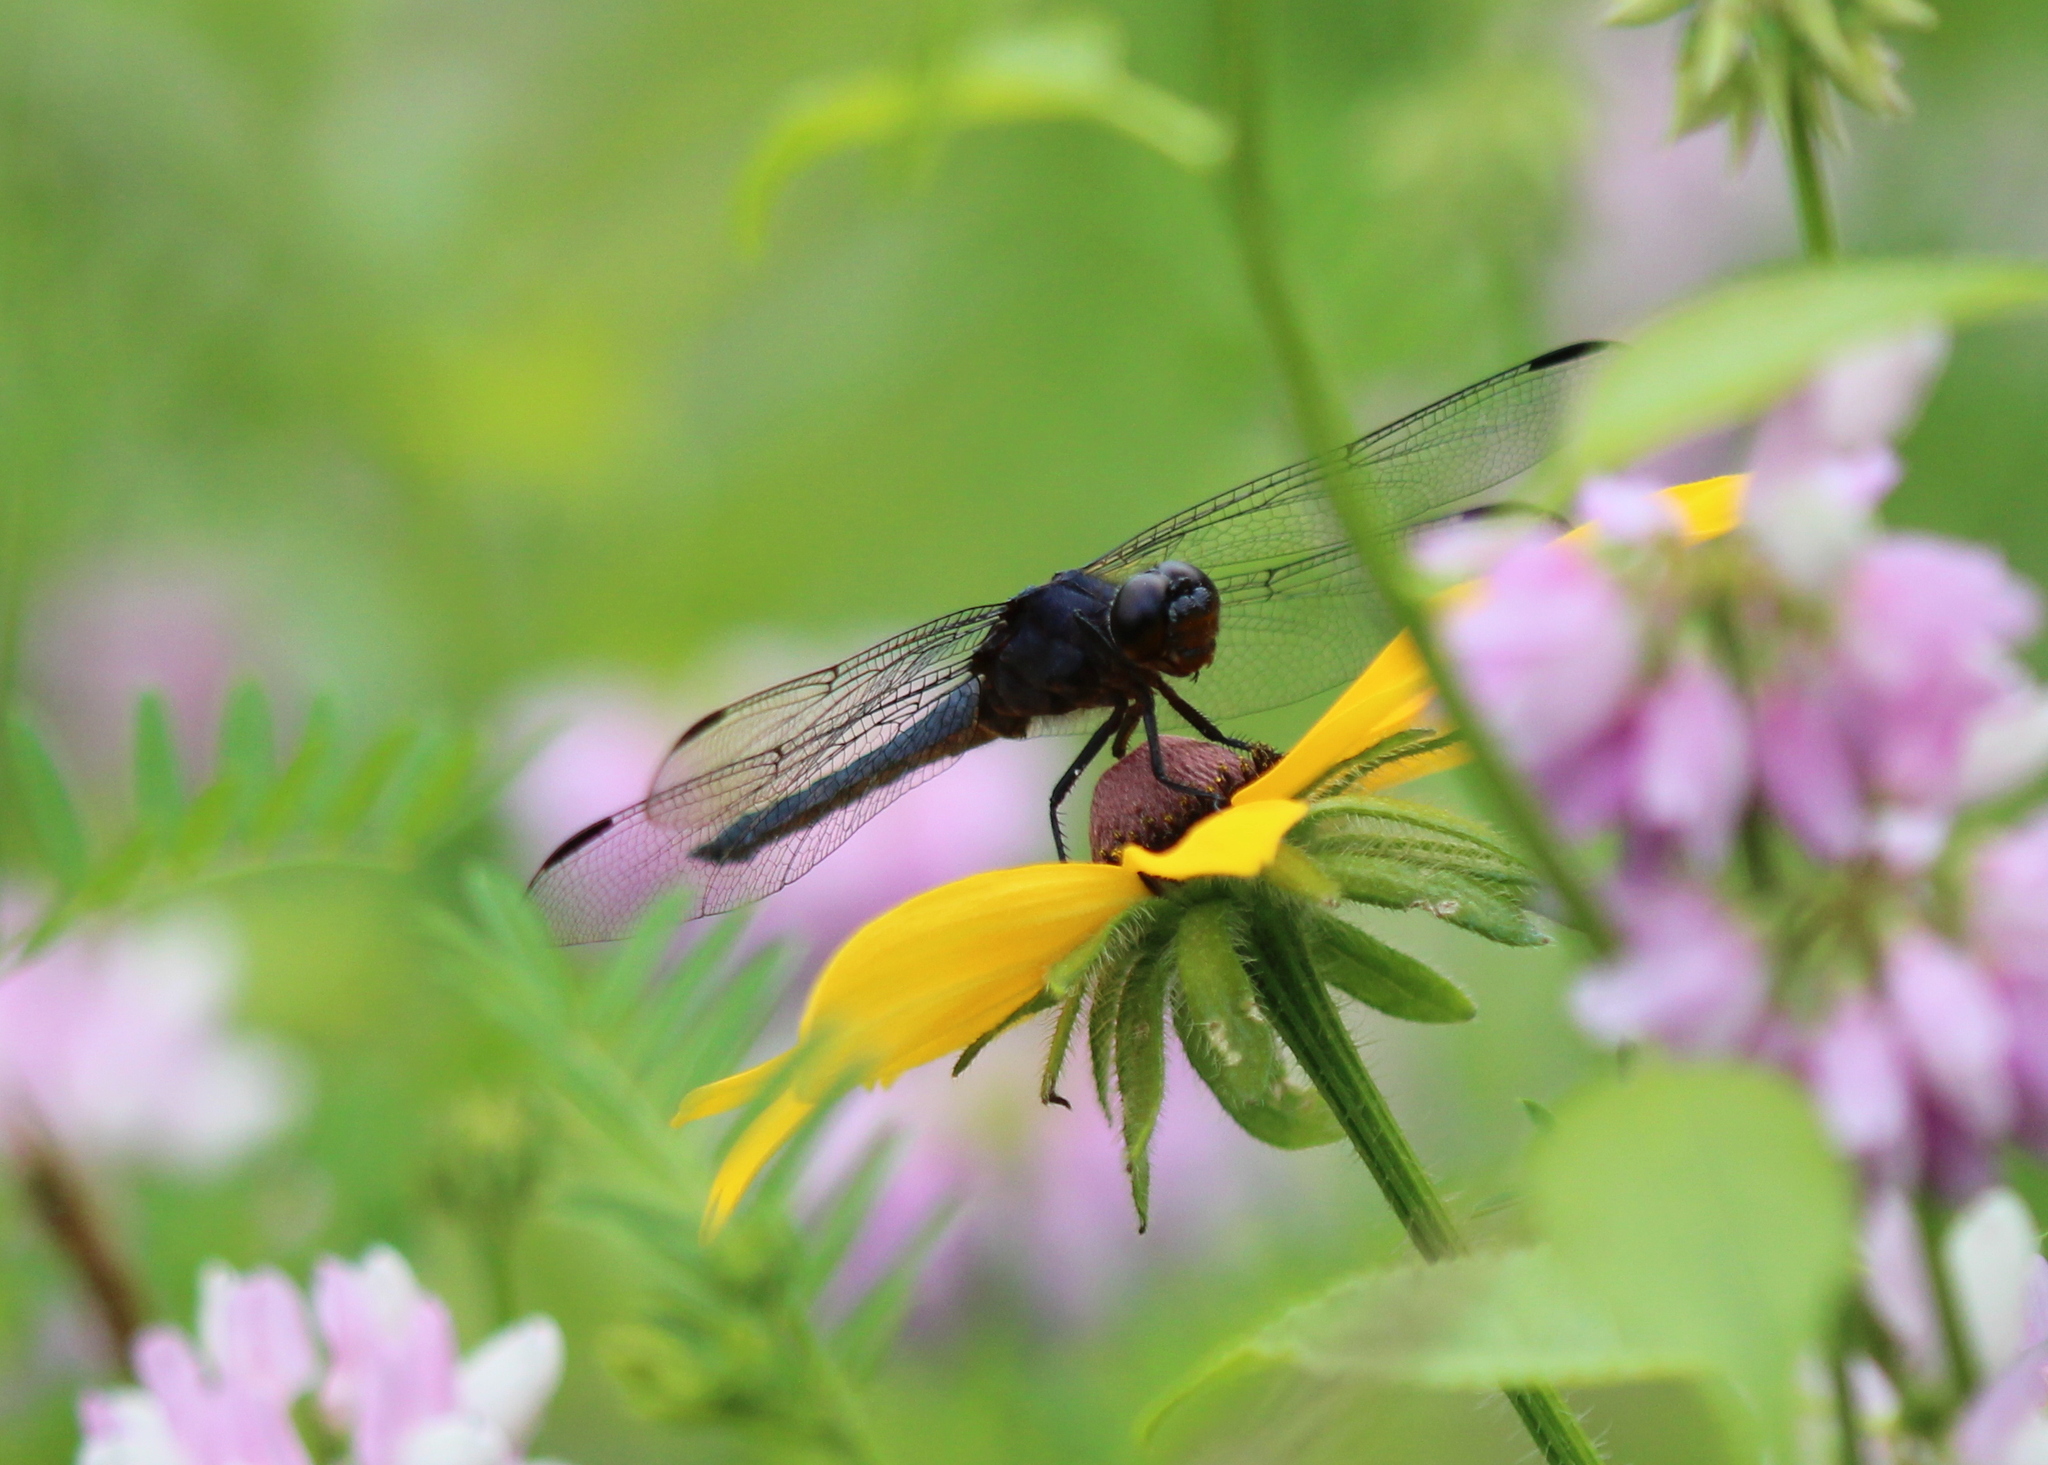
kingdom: Animalia
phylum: Arthropoda
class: Insecta
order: Odonata
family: Libellulidae
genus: Libellula
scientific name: Libellula incesta
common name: Slaty skimmer
